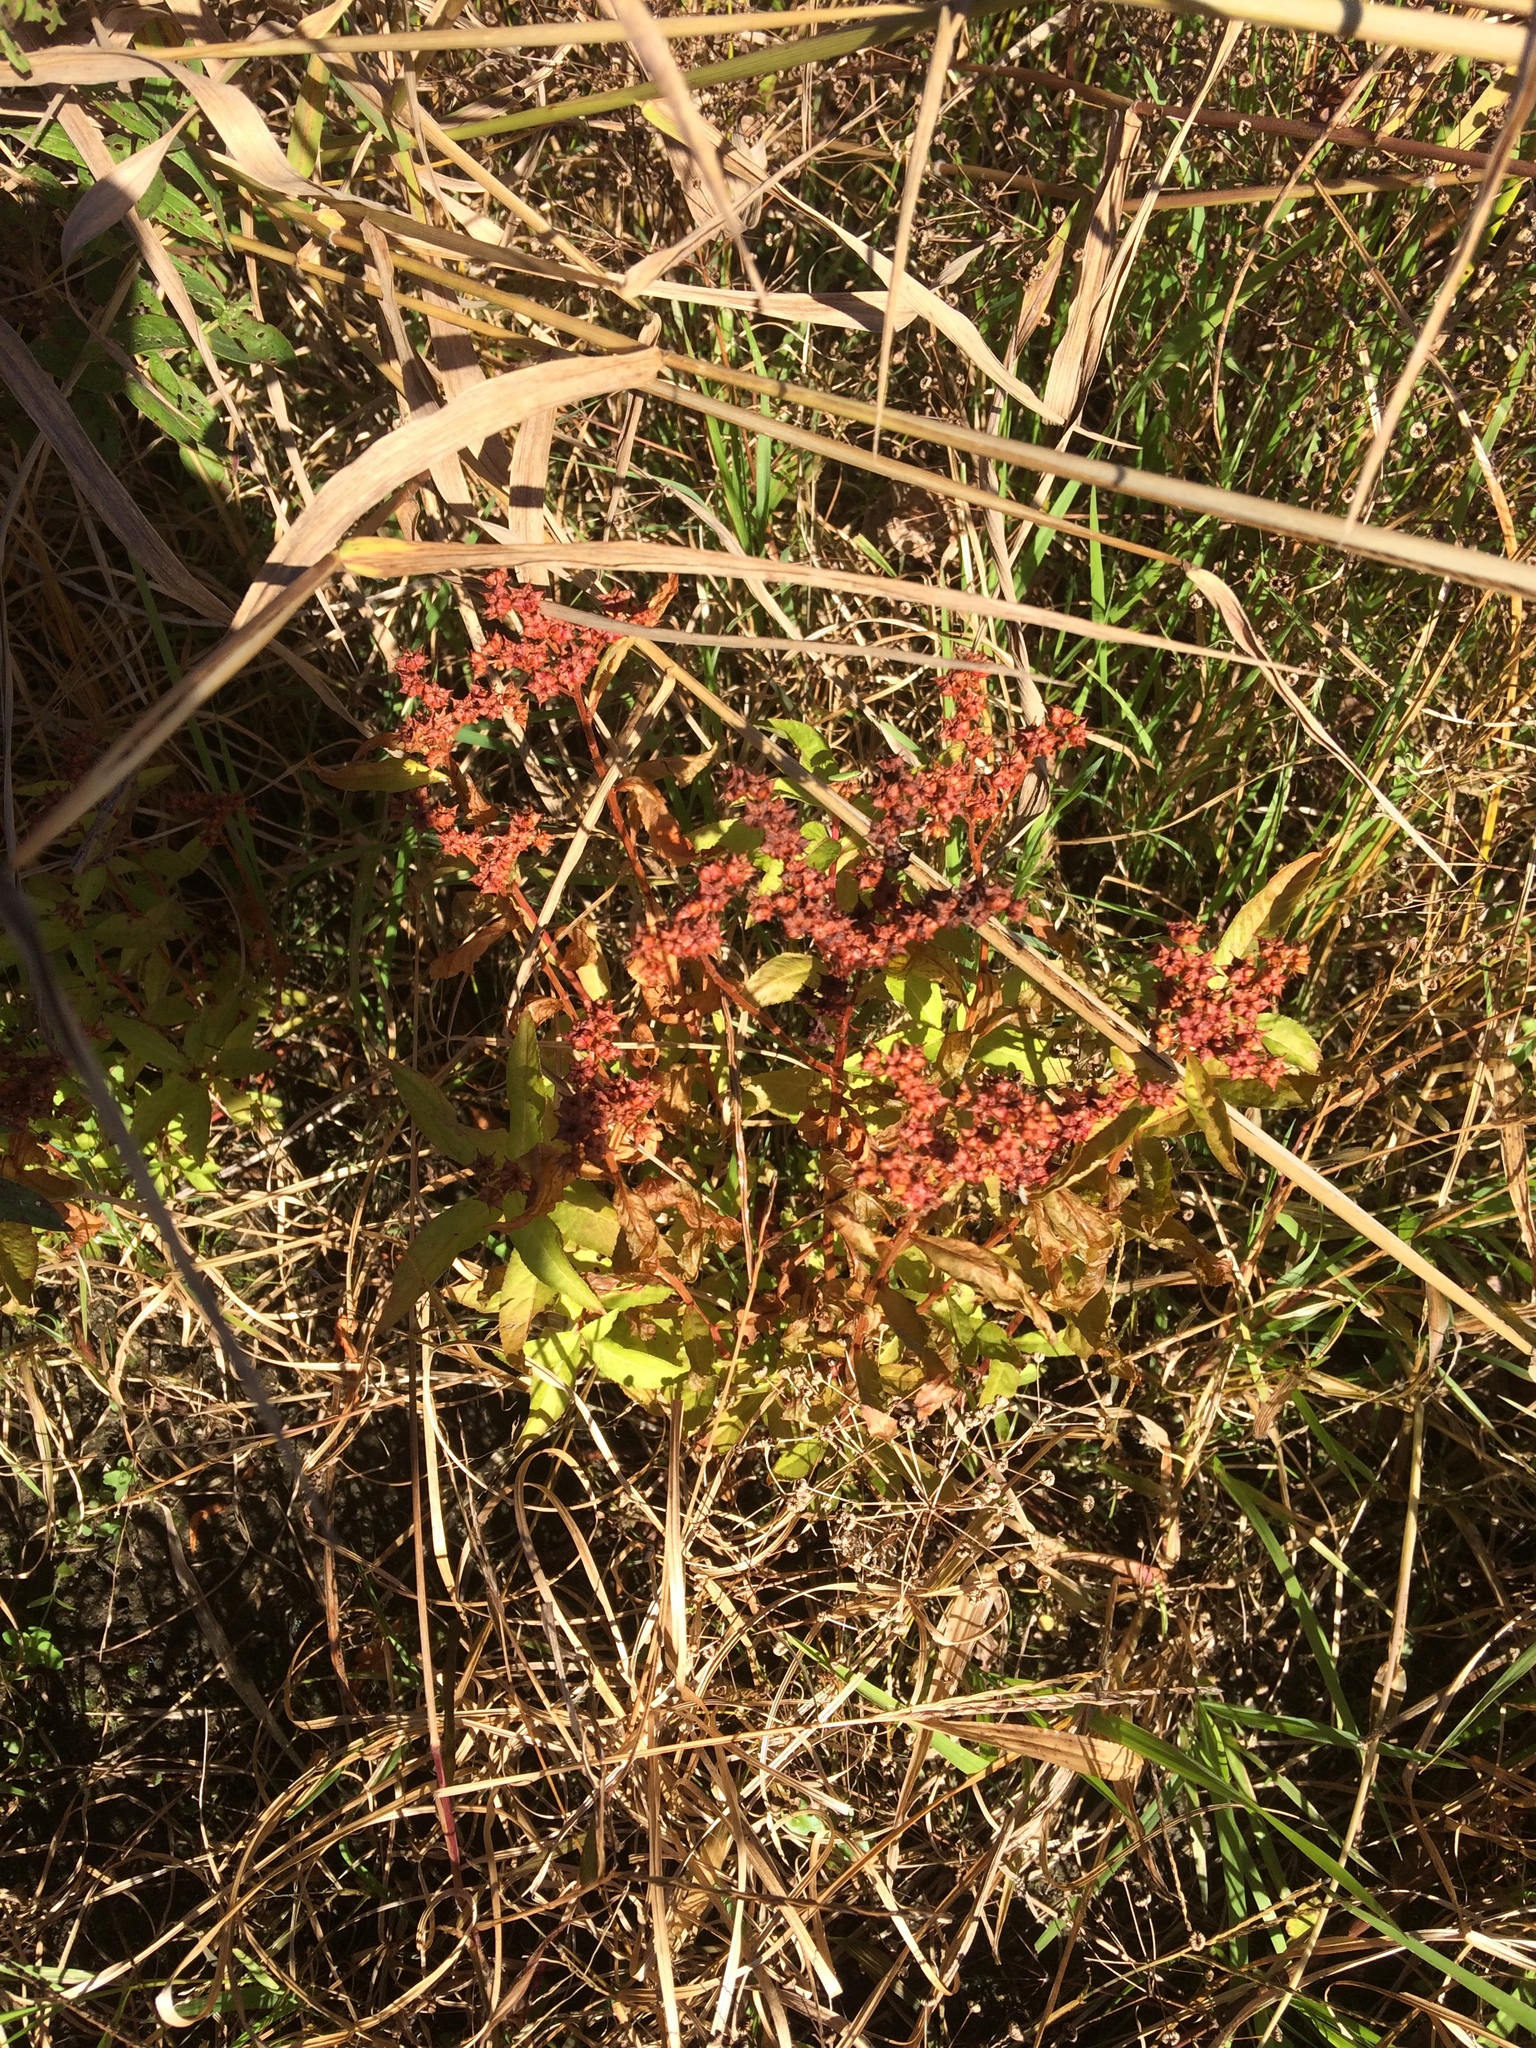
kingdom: Plantae
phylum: Tracheophyta
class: Magnoliopsida
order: Saxifragales
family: Penthoraceae
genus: Penthorum
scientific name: Penthorum sedoides
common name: Ditch stonecrop
